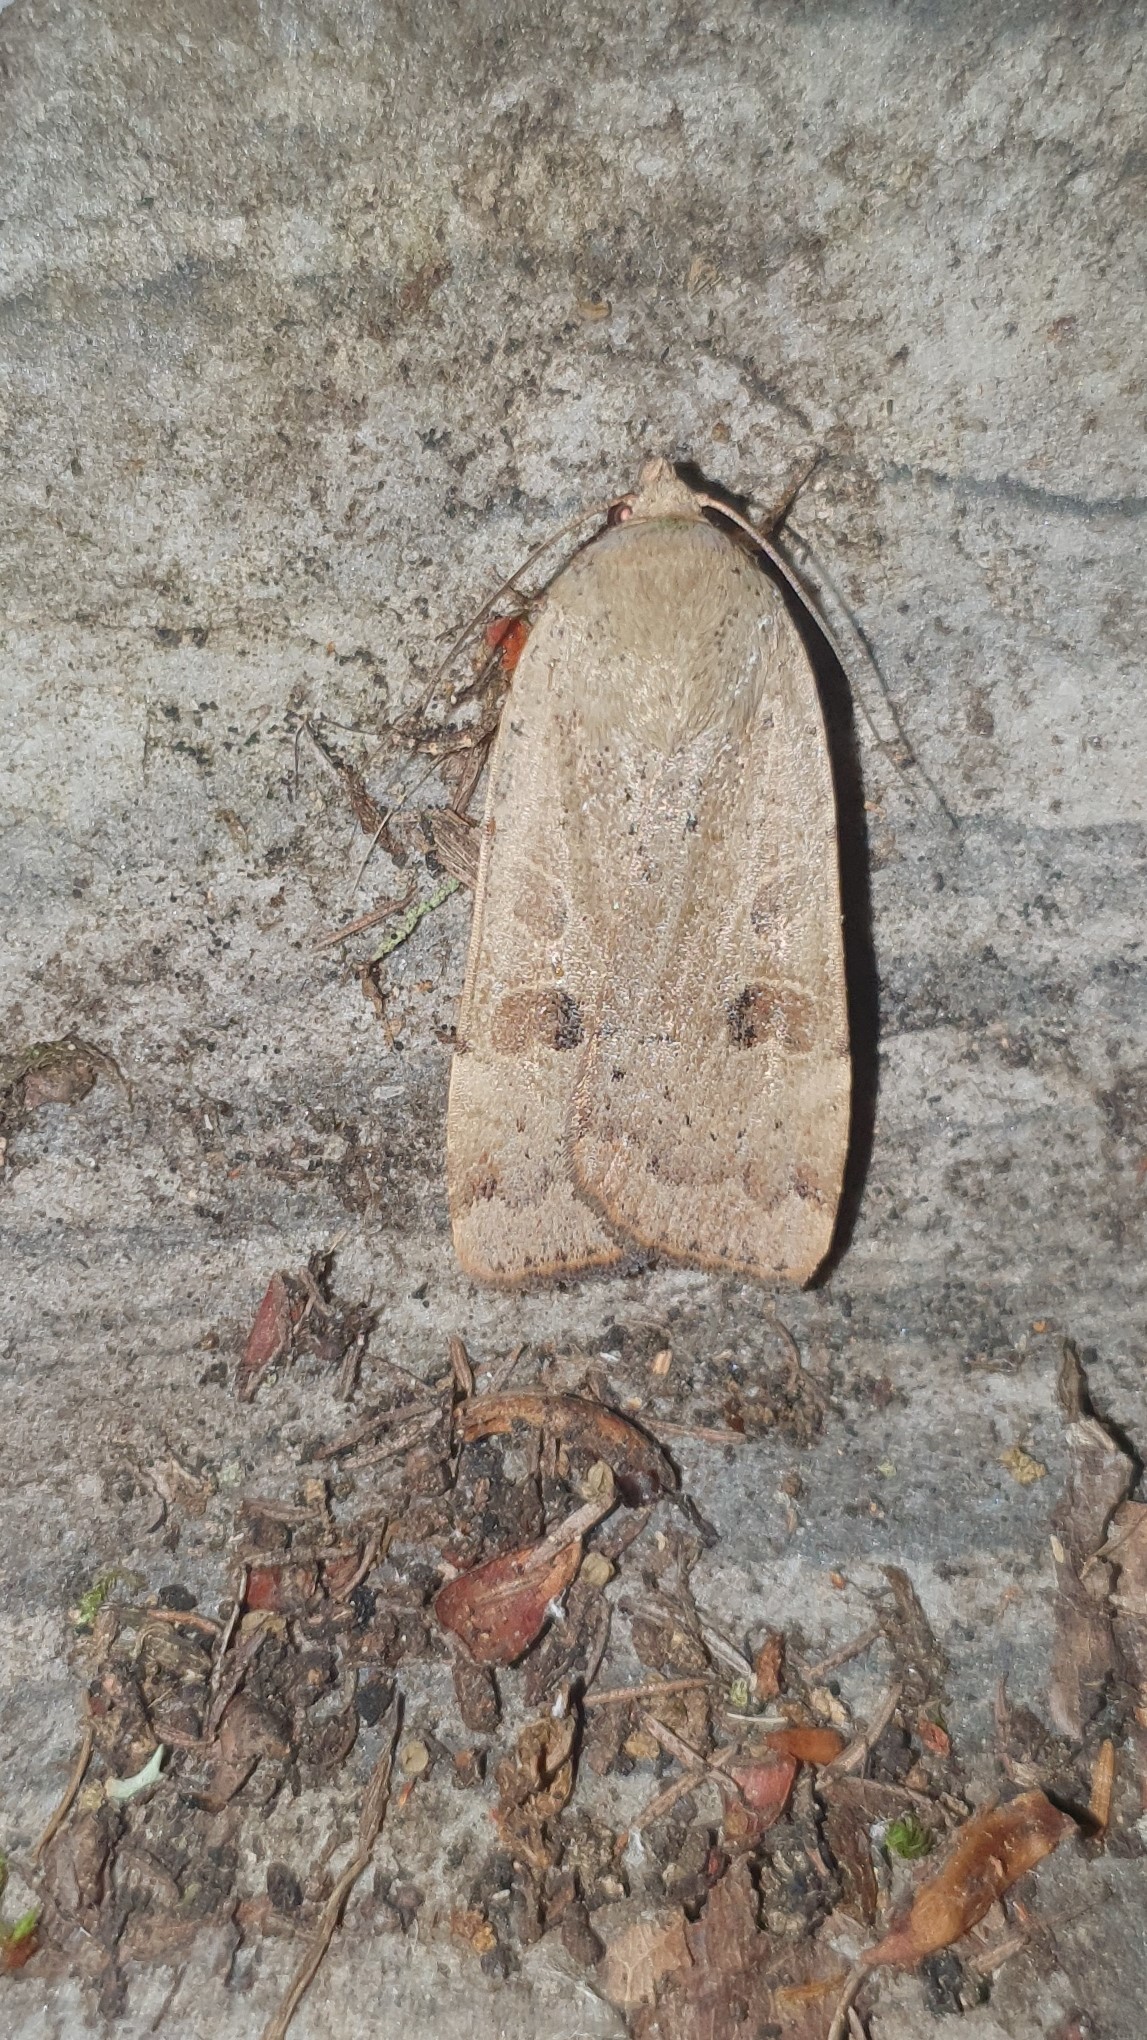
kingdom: Animalia
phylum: Arthropoda
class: Insecta
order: Lepidoptera
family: Noctuidae
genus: Noctua
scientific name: Noctua comes
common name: Lesser yellow underwing
